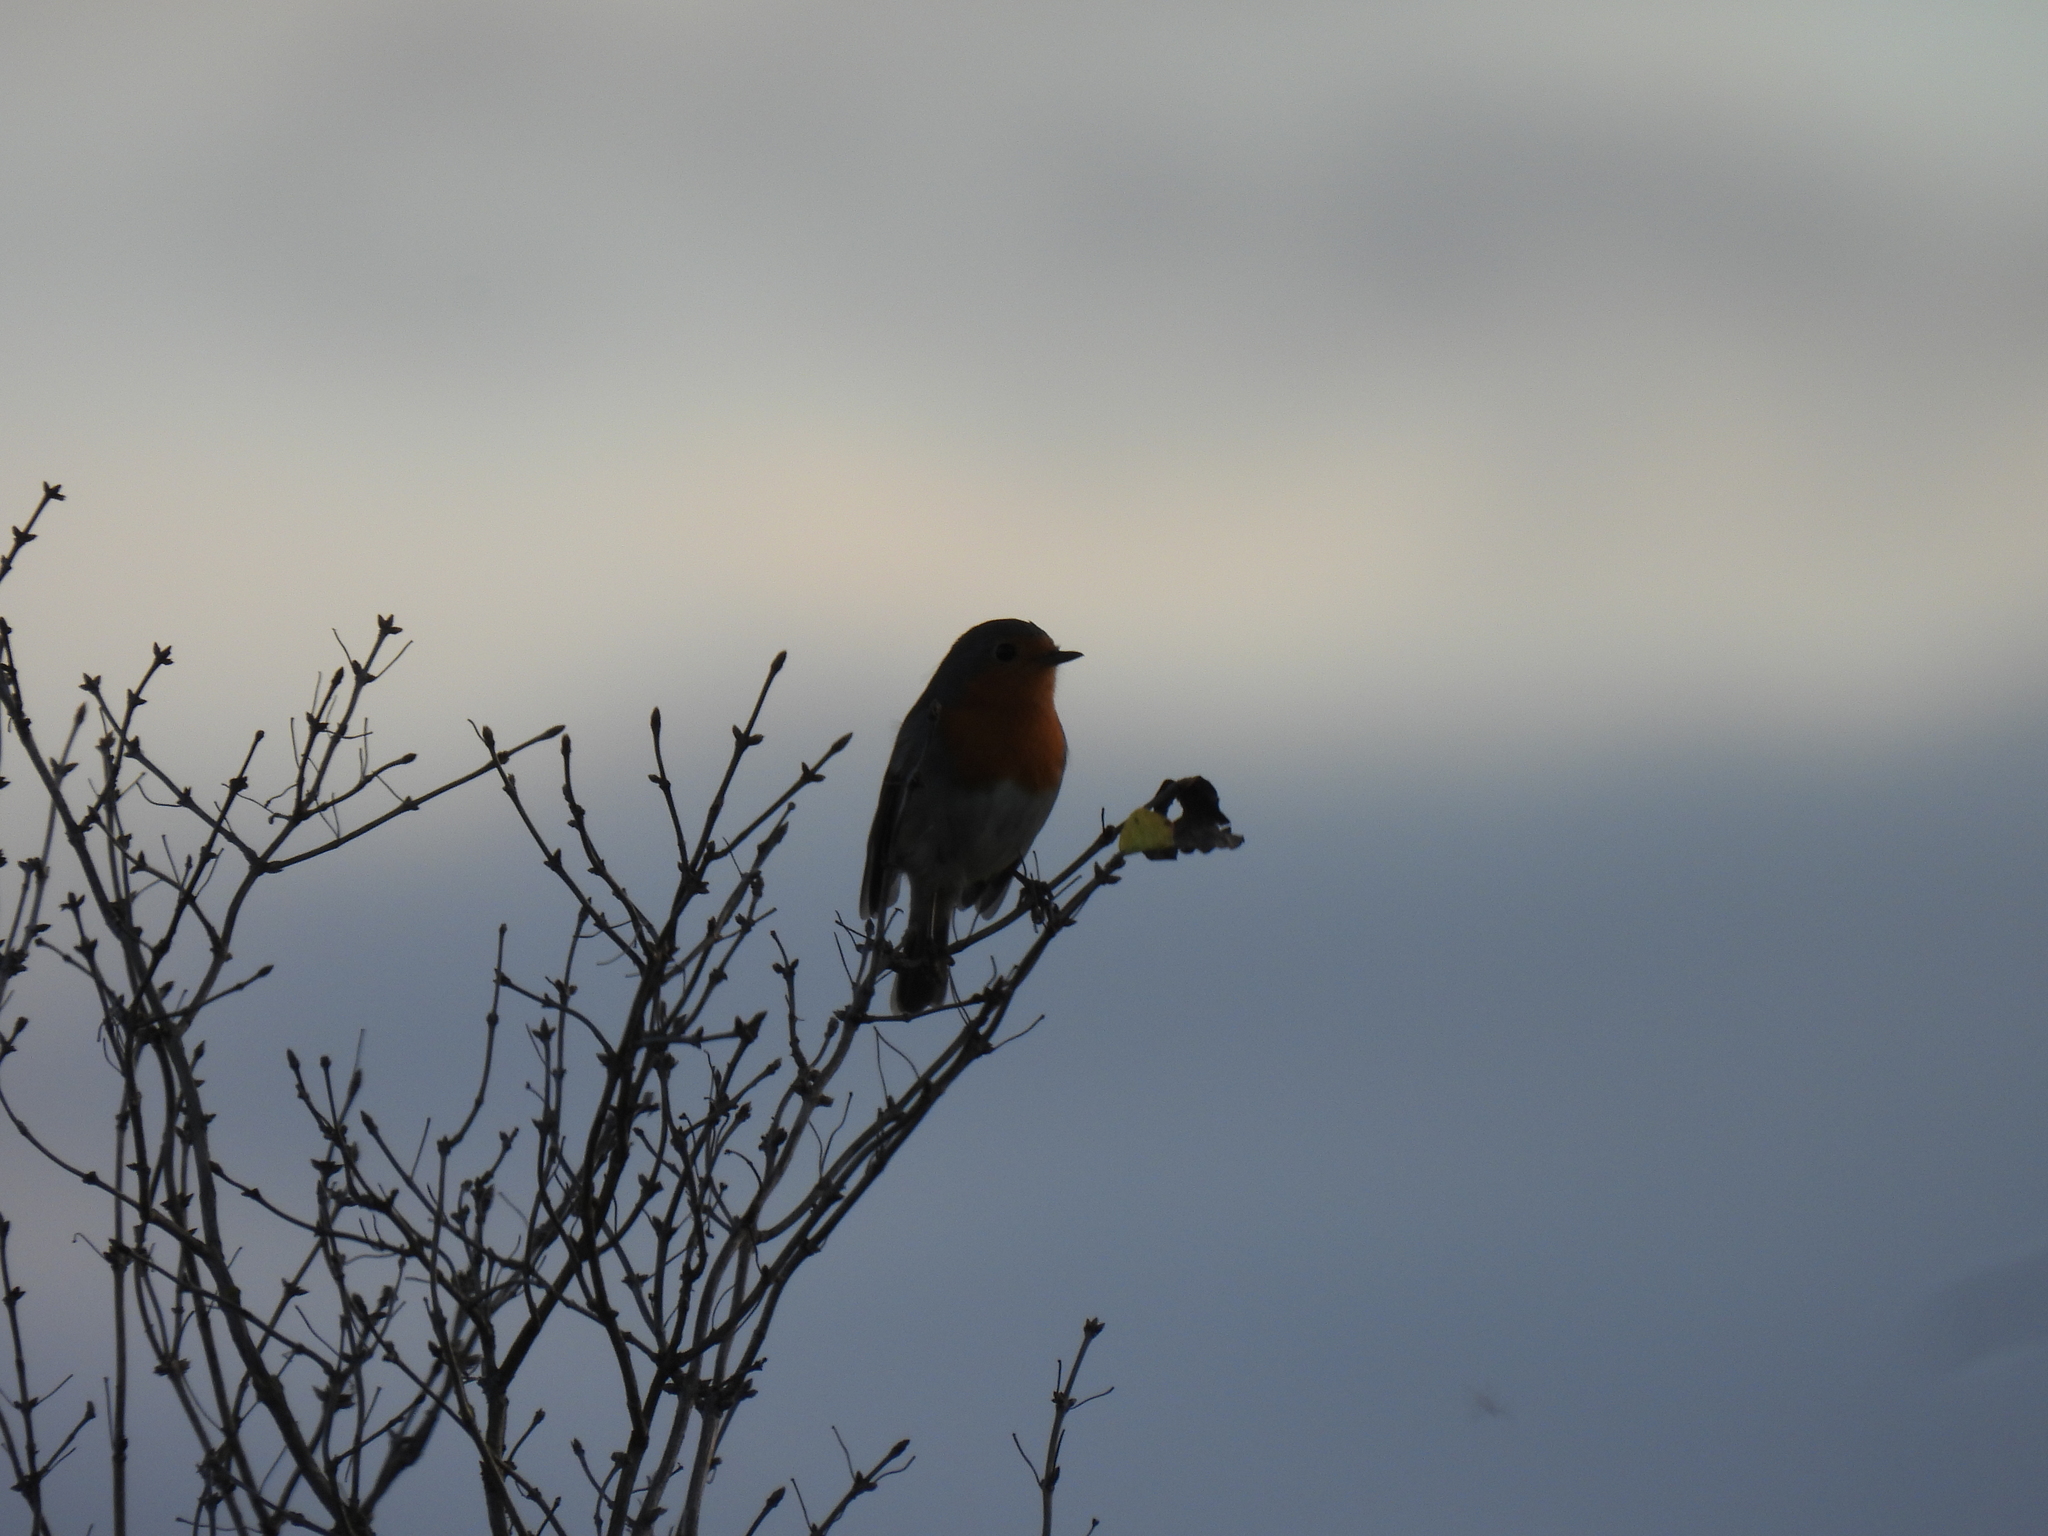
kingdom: Animalia
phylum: Chordata
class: Aves
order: Passeriformes
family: Muscicapidae
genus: Erithacus
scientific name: Erithacus rubecula
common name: European robin
